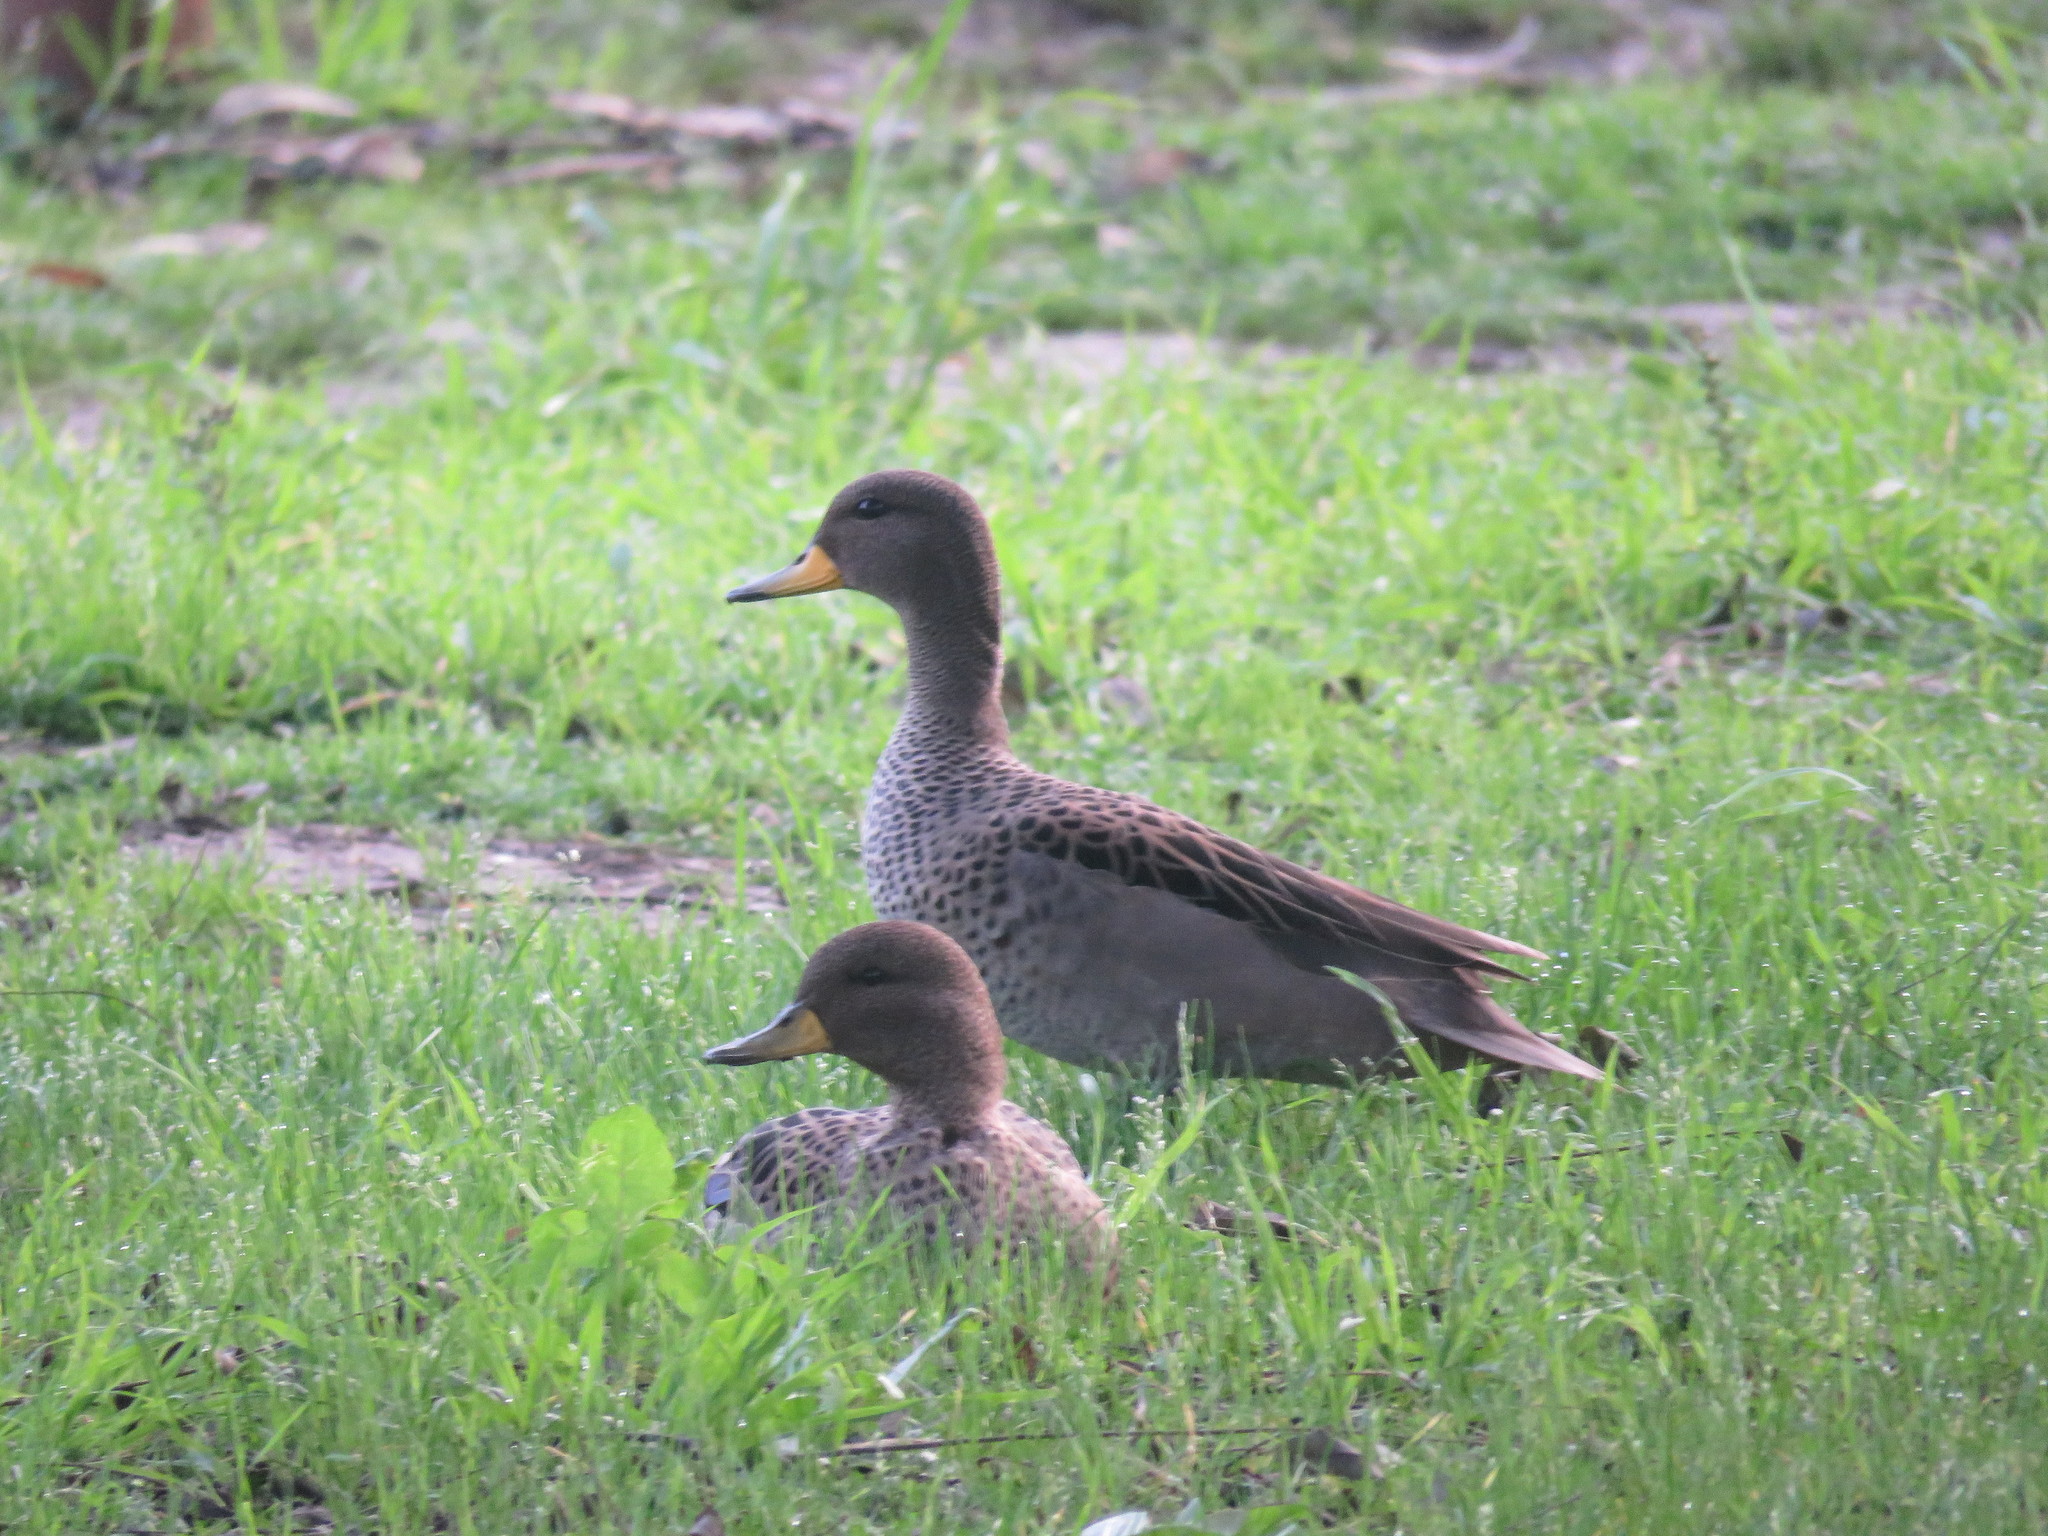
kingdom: Animalia
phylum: Chordata
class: Aves
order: Anseriformes
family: Anatidae
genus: Anas
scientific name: Anas flavirostris
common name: Yellow-billed teal
